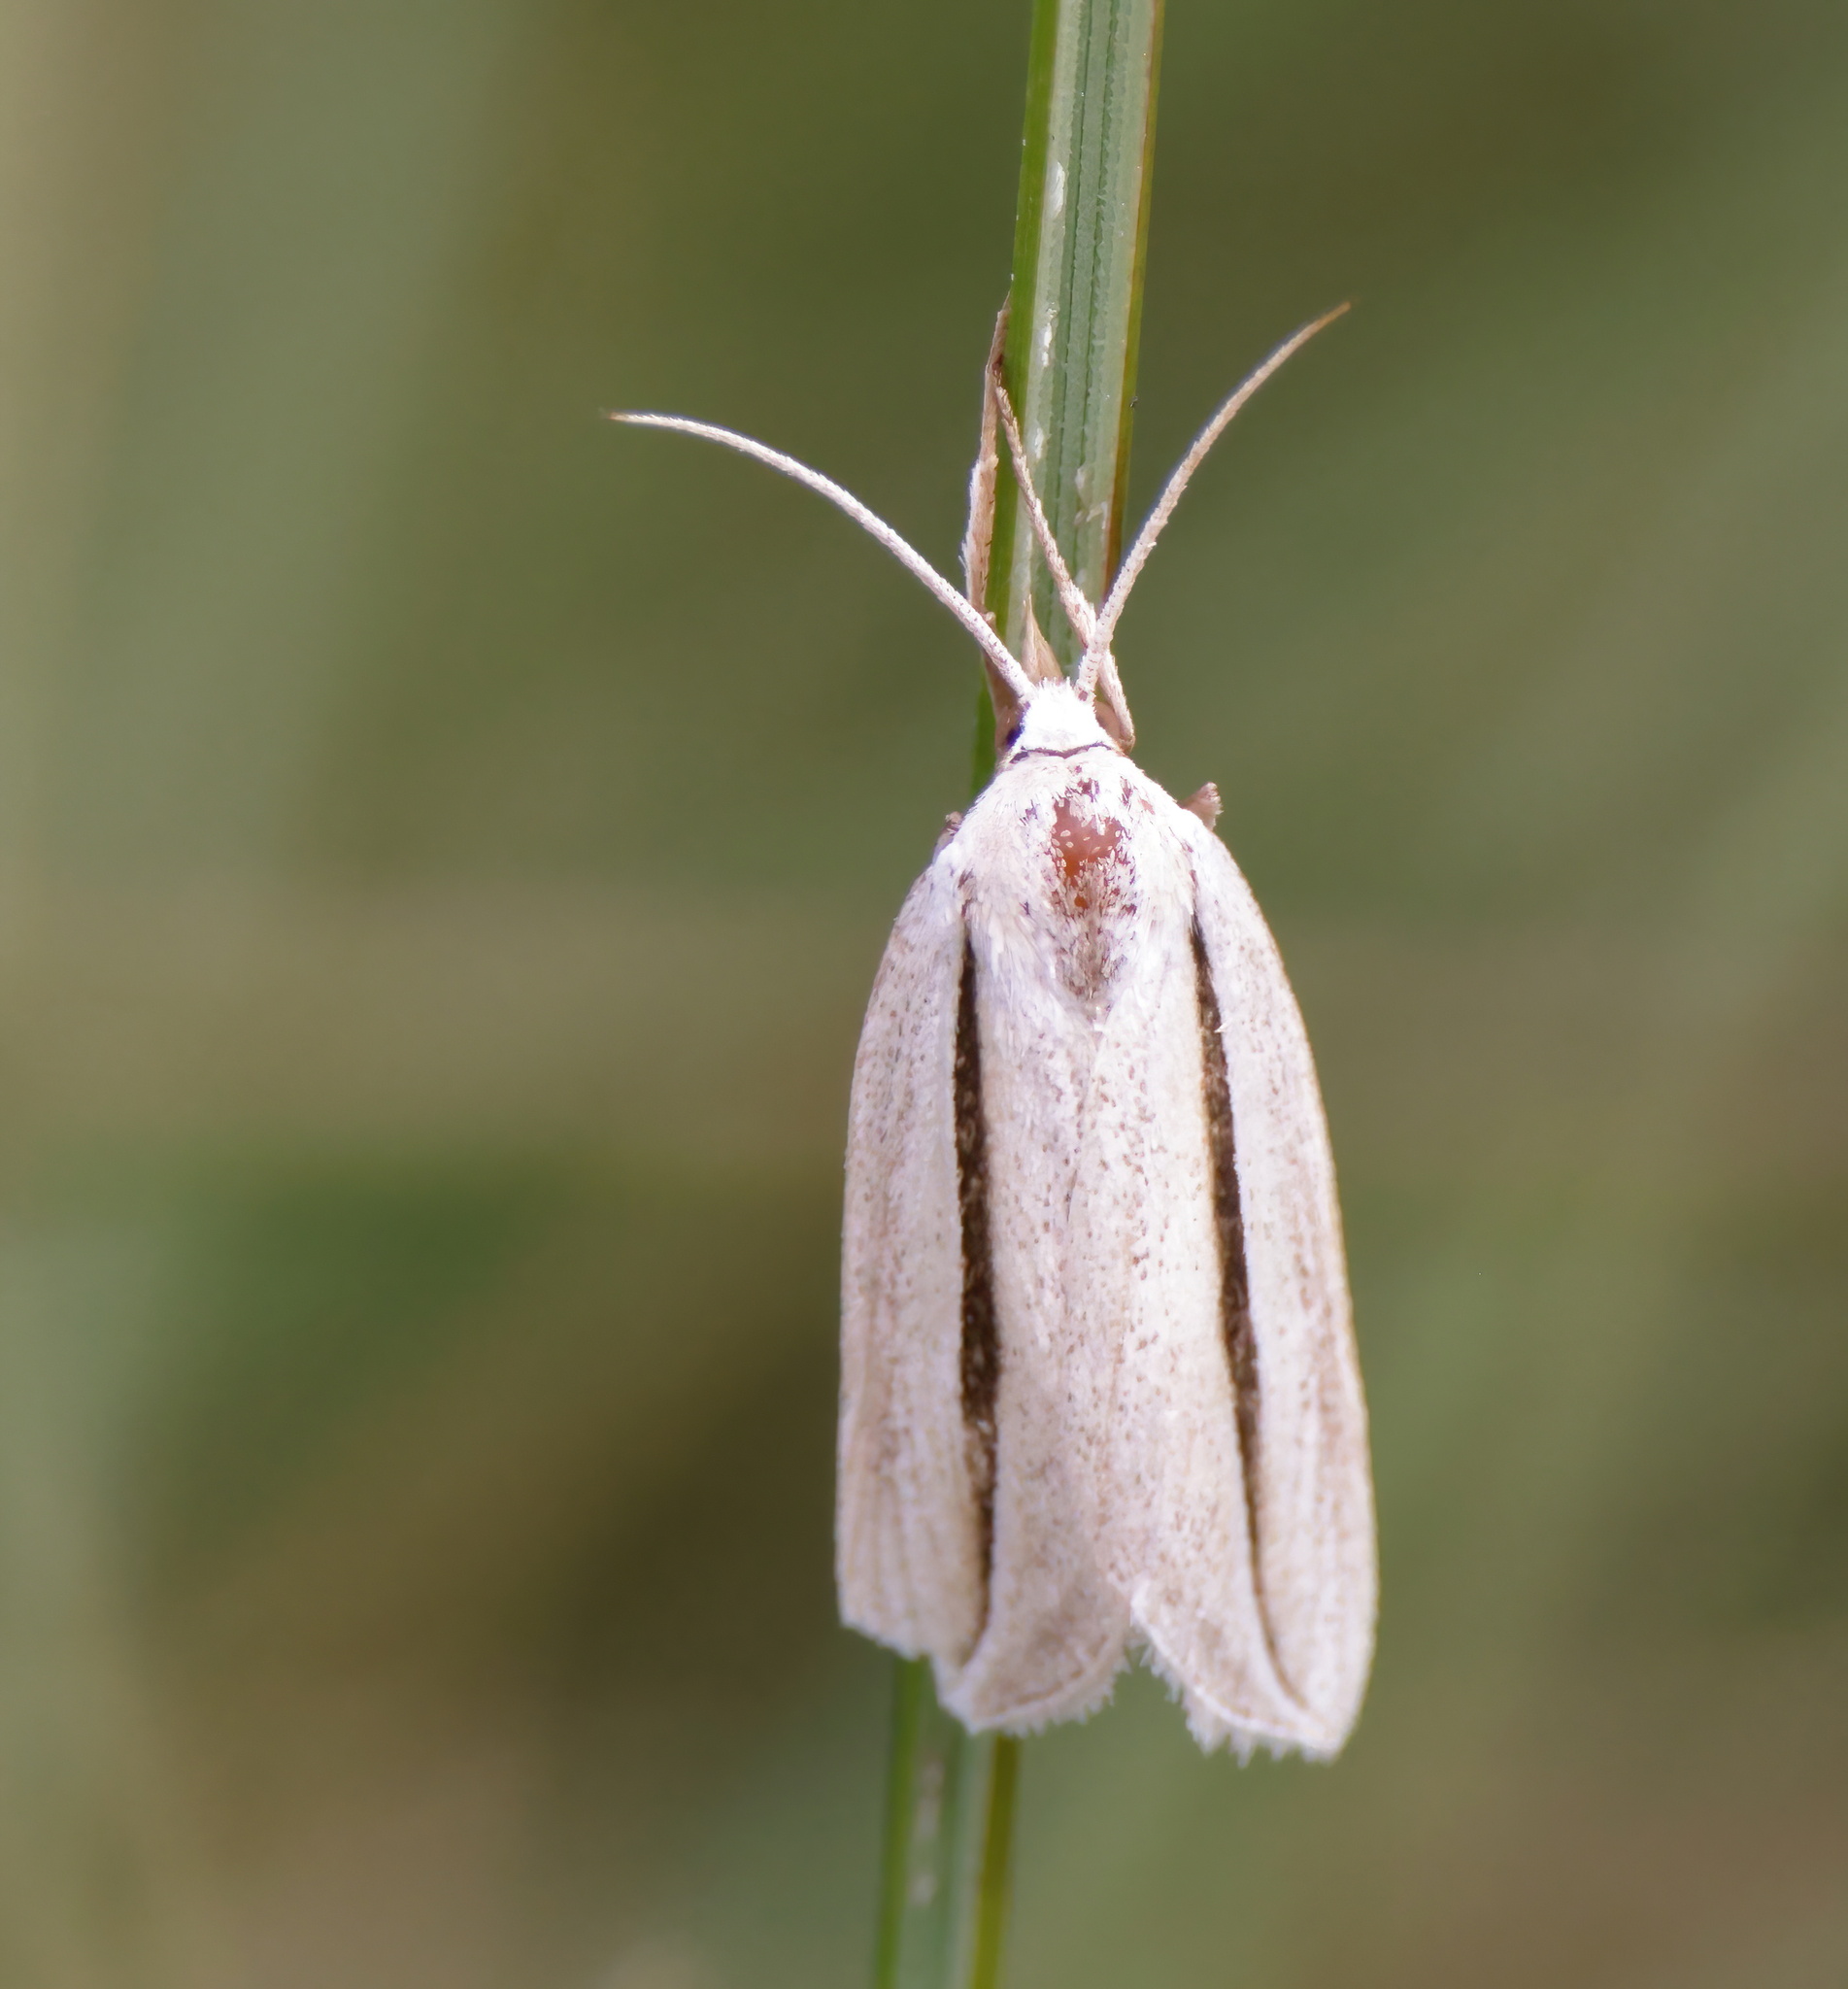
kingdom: Animalia
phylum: Arthropoda
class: Insecta
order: Lepidoptera
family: Erebidae
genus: Doryodes
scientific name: Doryodes latistriga
